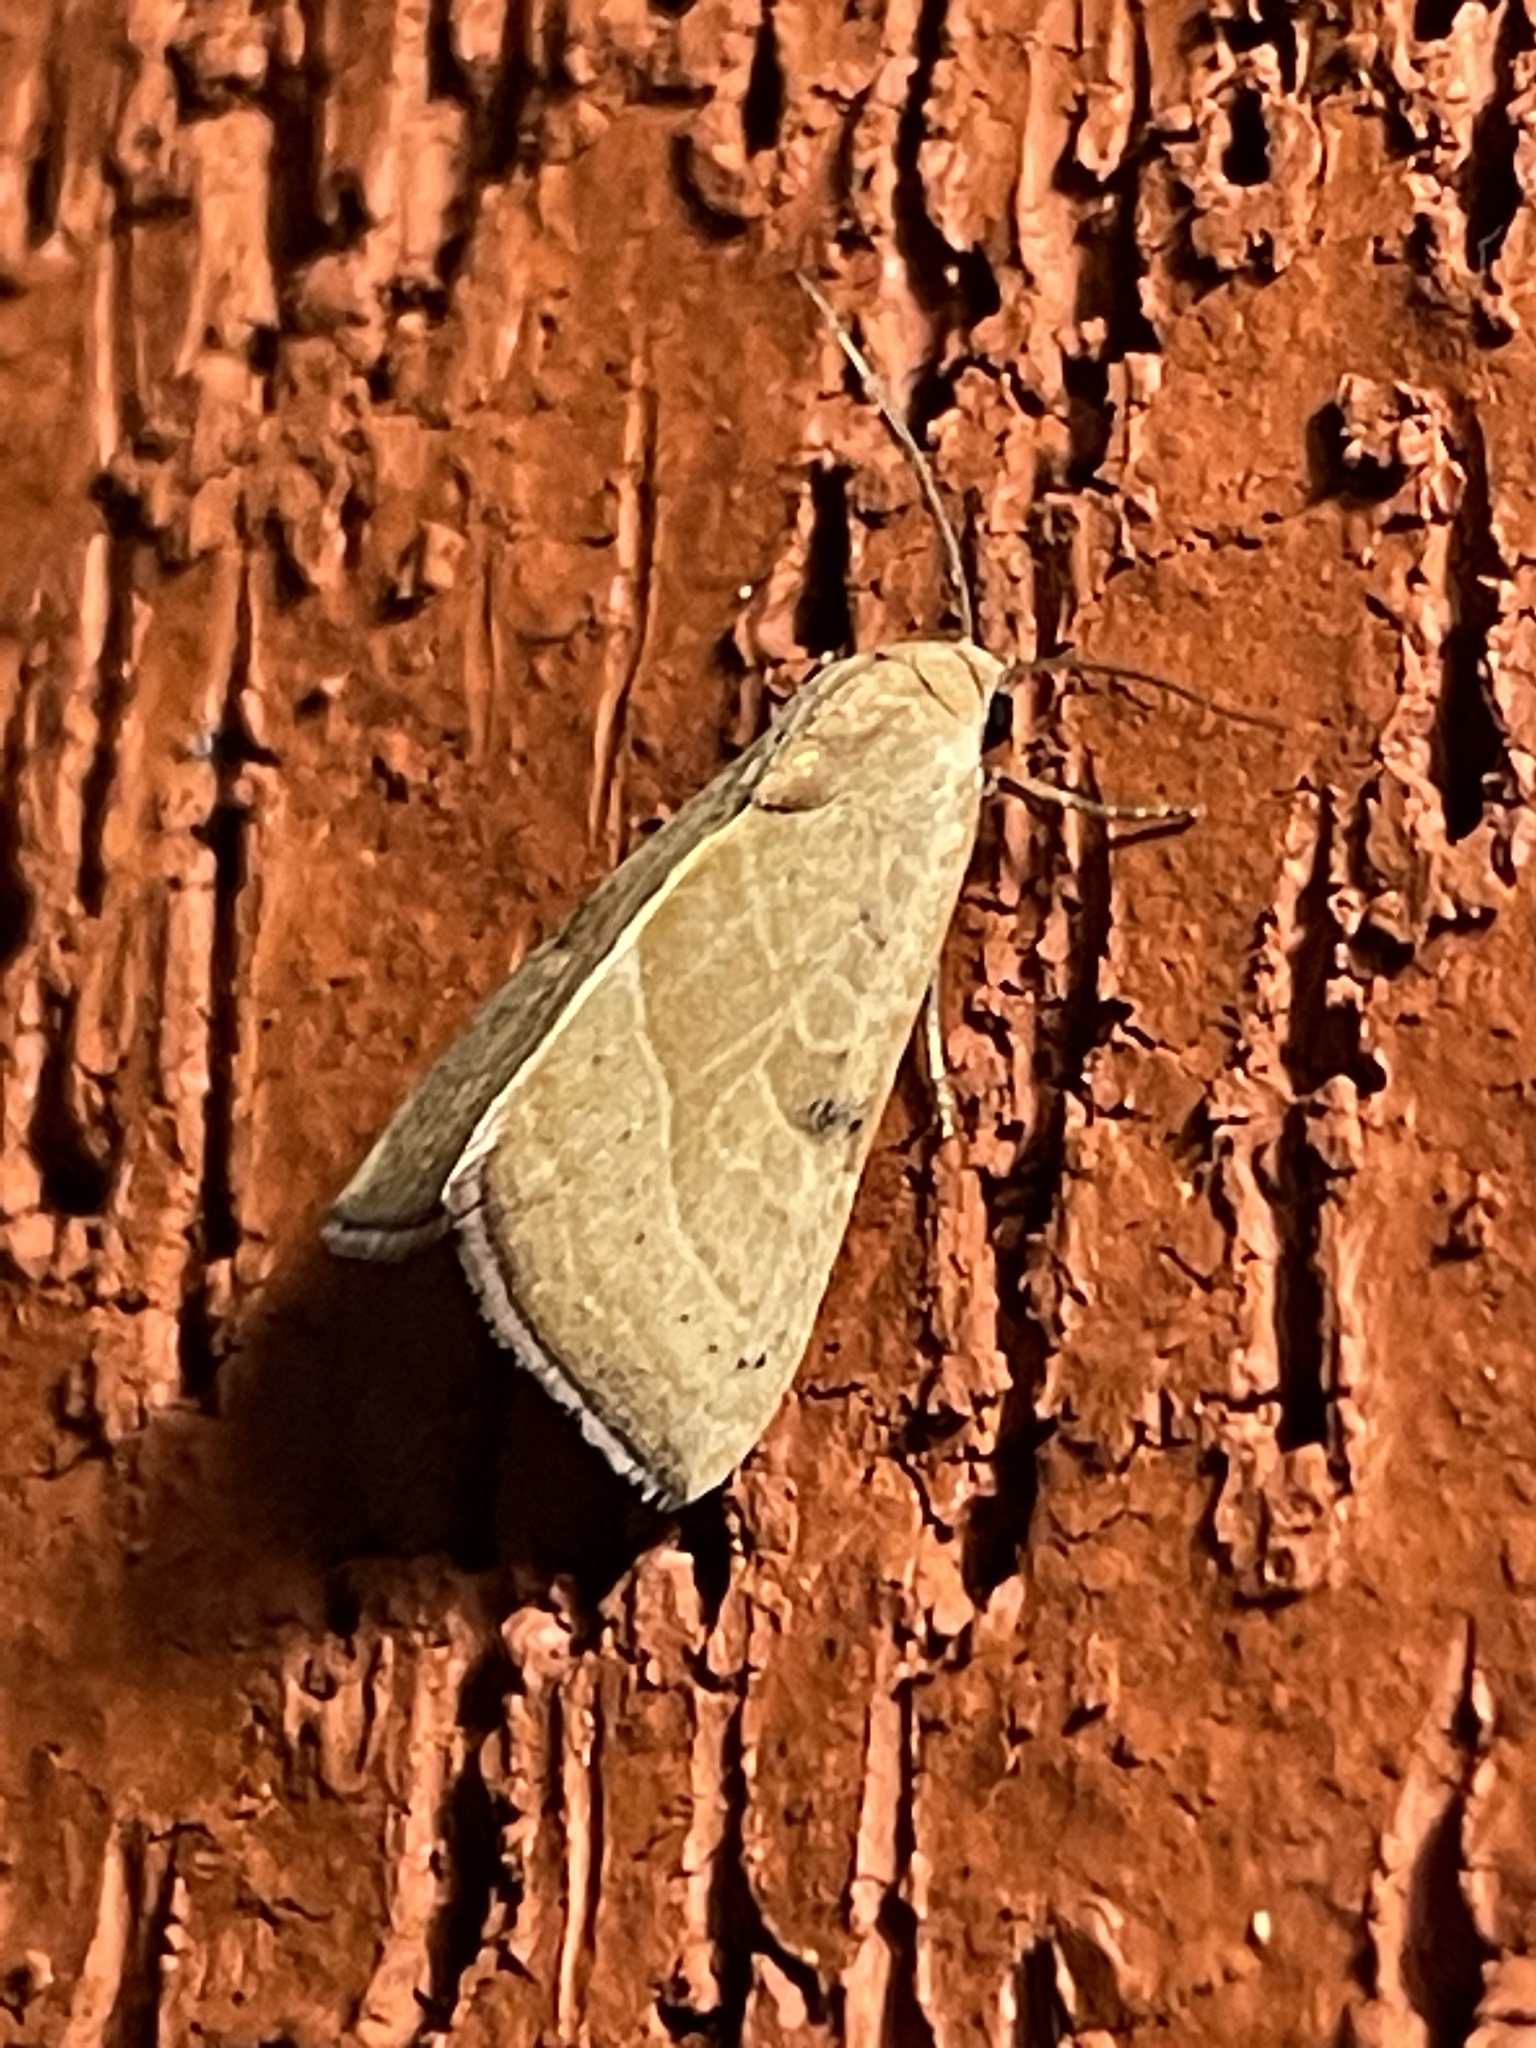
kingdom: Animalia
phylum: Arthropoda
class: Insecta
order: Lepidoptera
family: Noctuidae
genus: Galgula
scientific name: Galgula partita
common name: Wedgeling
